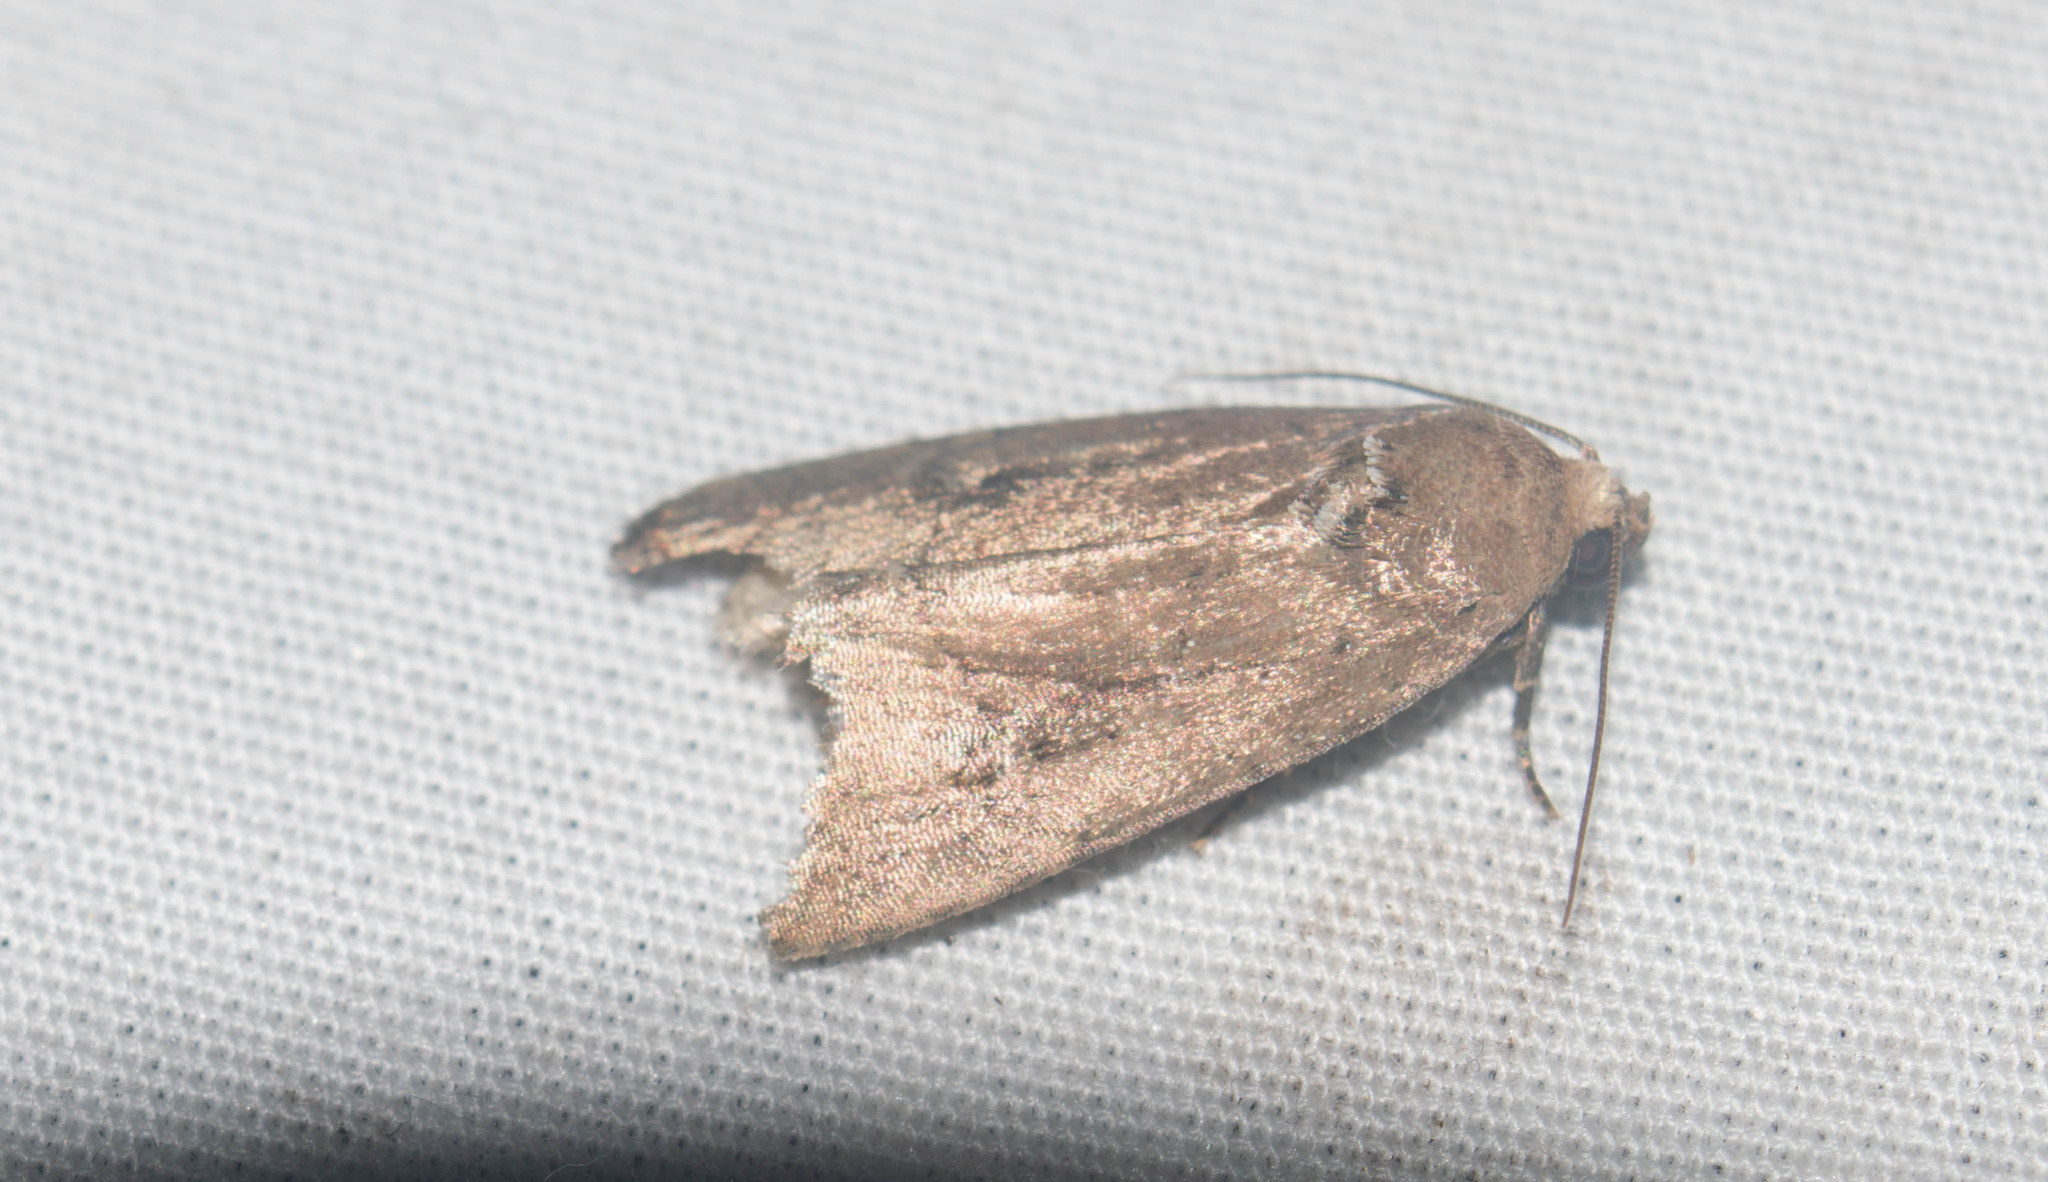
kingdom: Animalia
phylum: Arthropoda
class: Insecta
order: Lepidoptera
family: Noctuidae
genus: Elaphria
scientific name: Elaphria nucicolora
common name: Sugarcane midget moth
